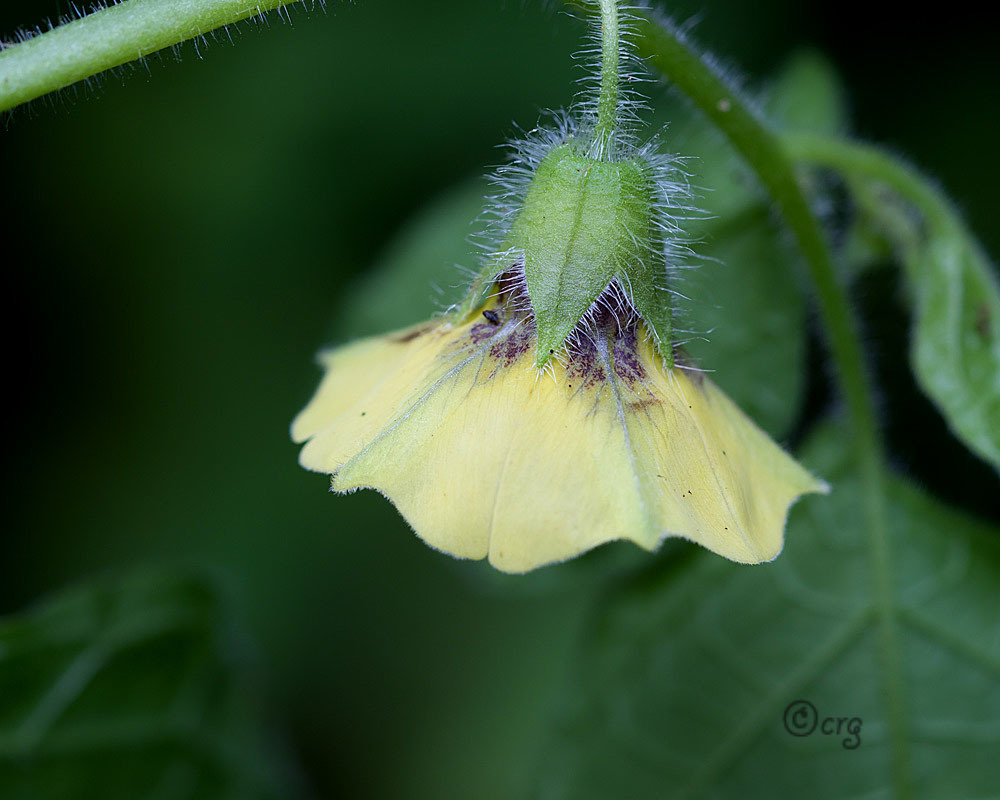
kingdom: Plantae
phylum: Tracheophyta
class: Magnoliopsida
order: Solanales
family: Solanaceae
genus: Physalis
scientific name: Physalis heterophylla
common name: Clammy ground-cherry
